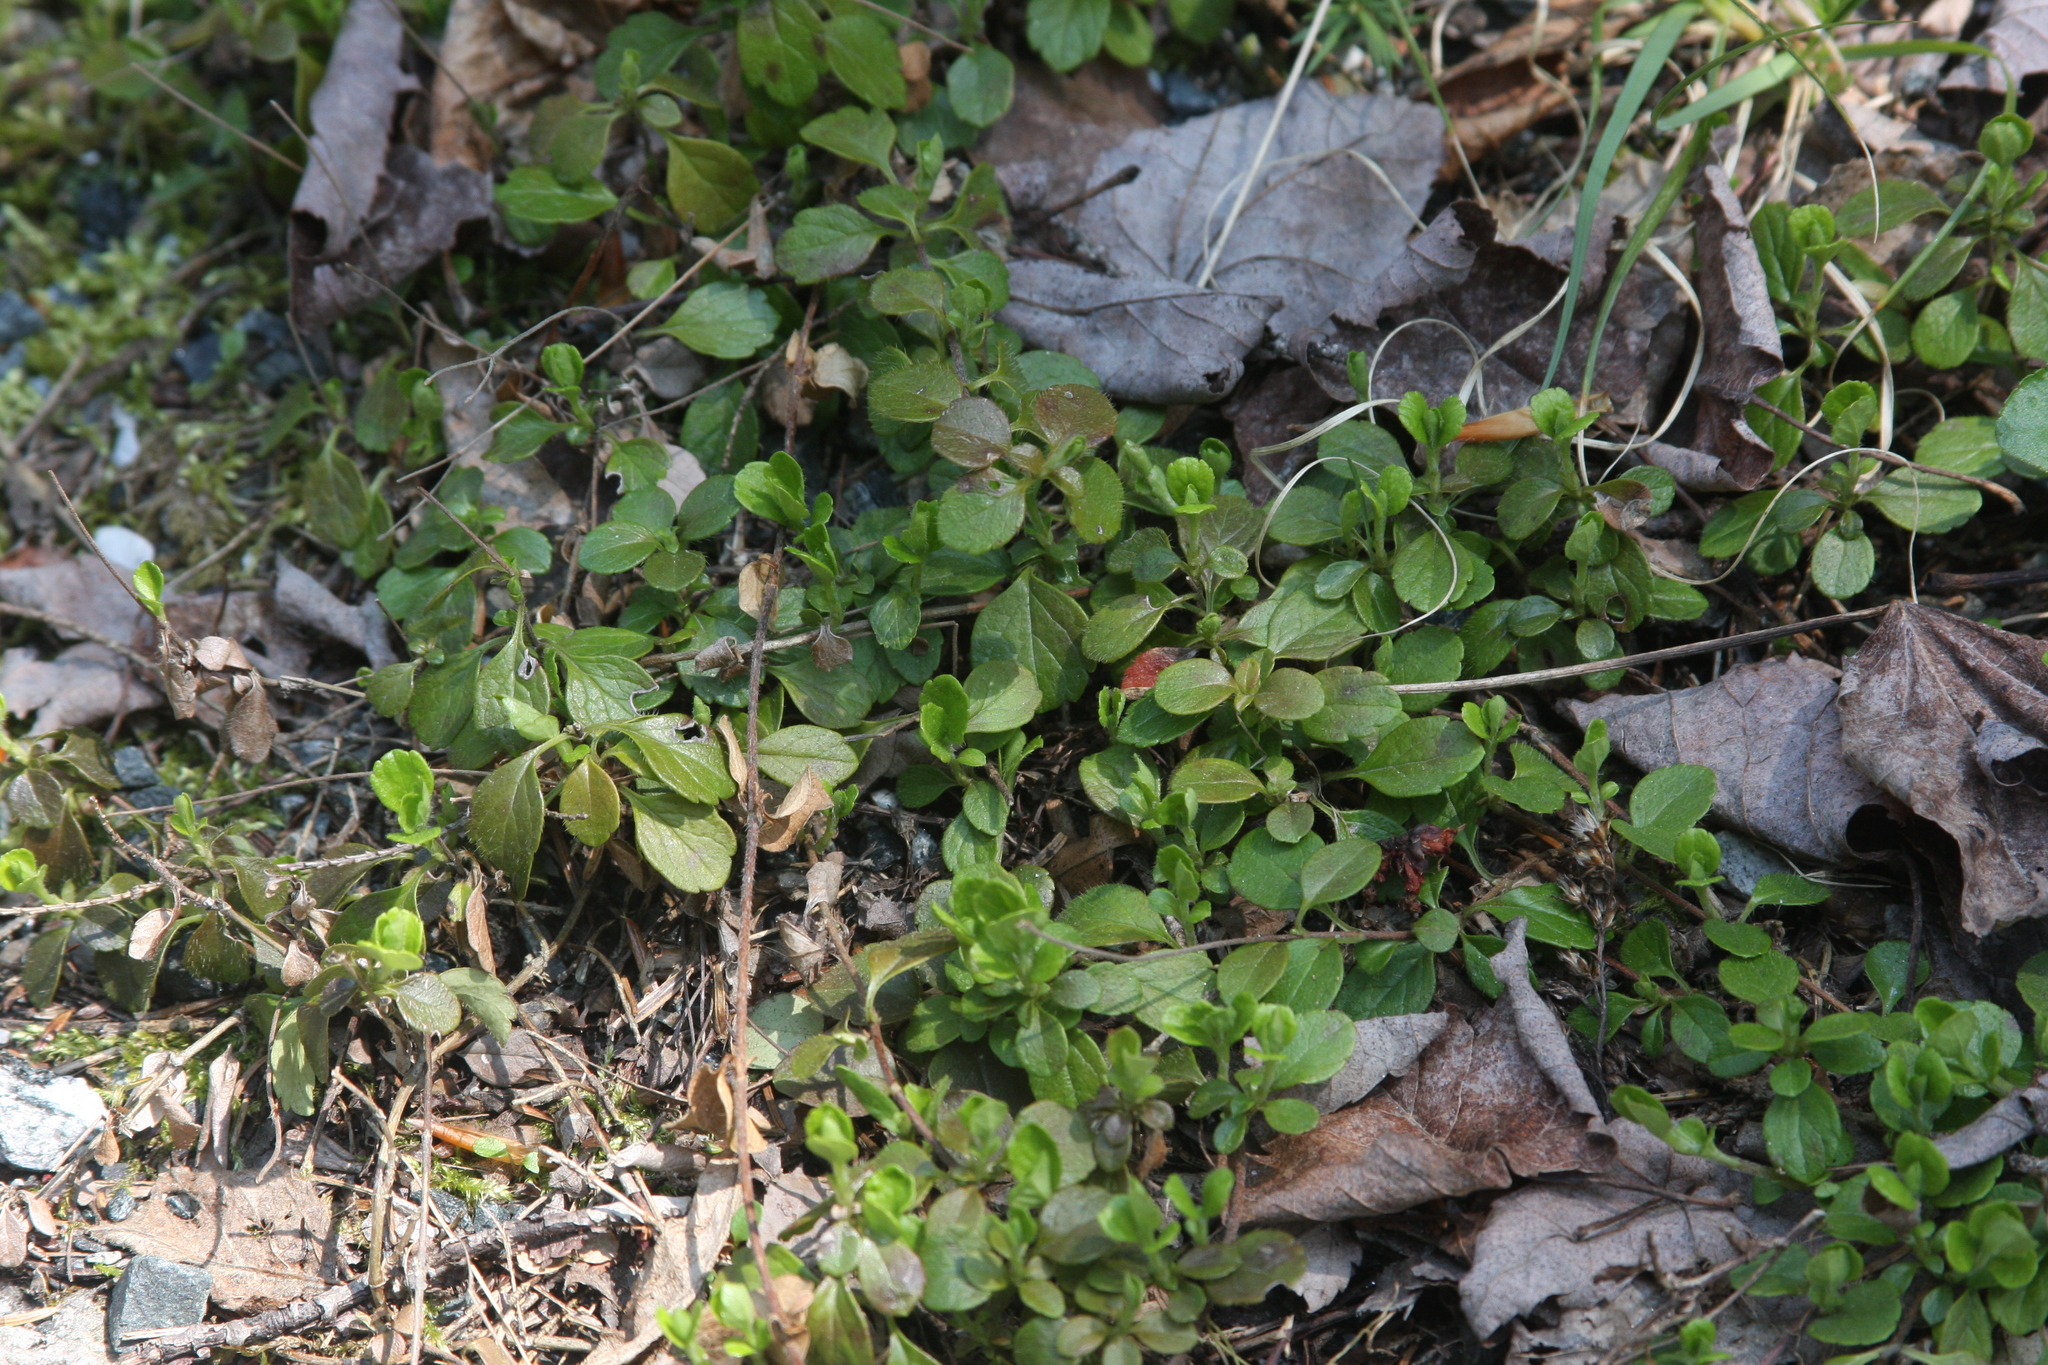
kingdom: Plantae
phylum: Tracheophyta
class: Magnoliopsida
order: Dipsacales
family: Caprifoliaceae
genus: Linnaea
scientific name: Linnaea borealis
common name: Twinflower
